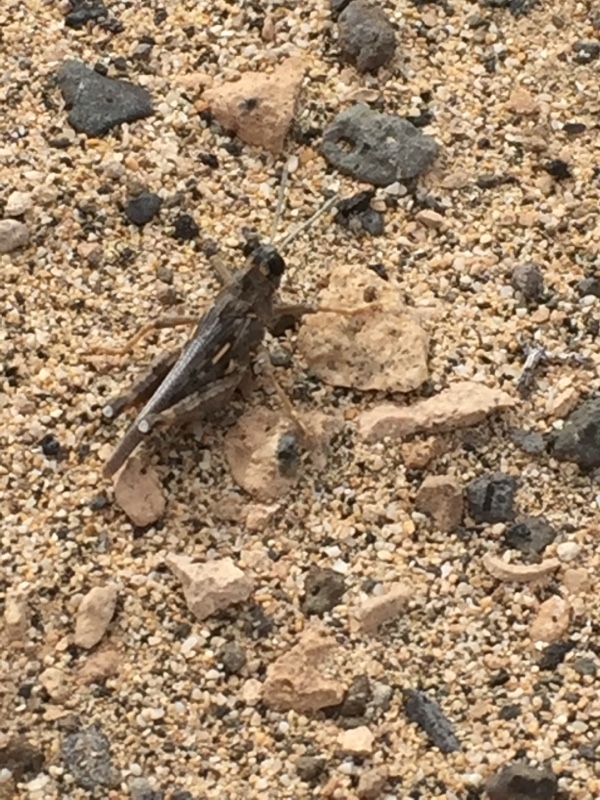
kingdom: Animalia
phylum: Arthropoda
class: Insecta
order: Orthoptera
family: Dericorythidae
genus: Dericorys
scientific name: Dericorys lobata
